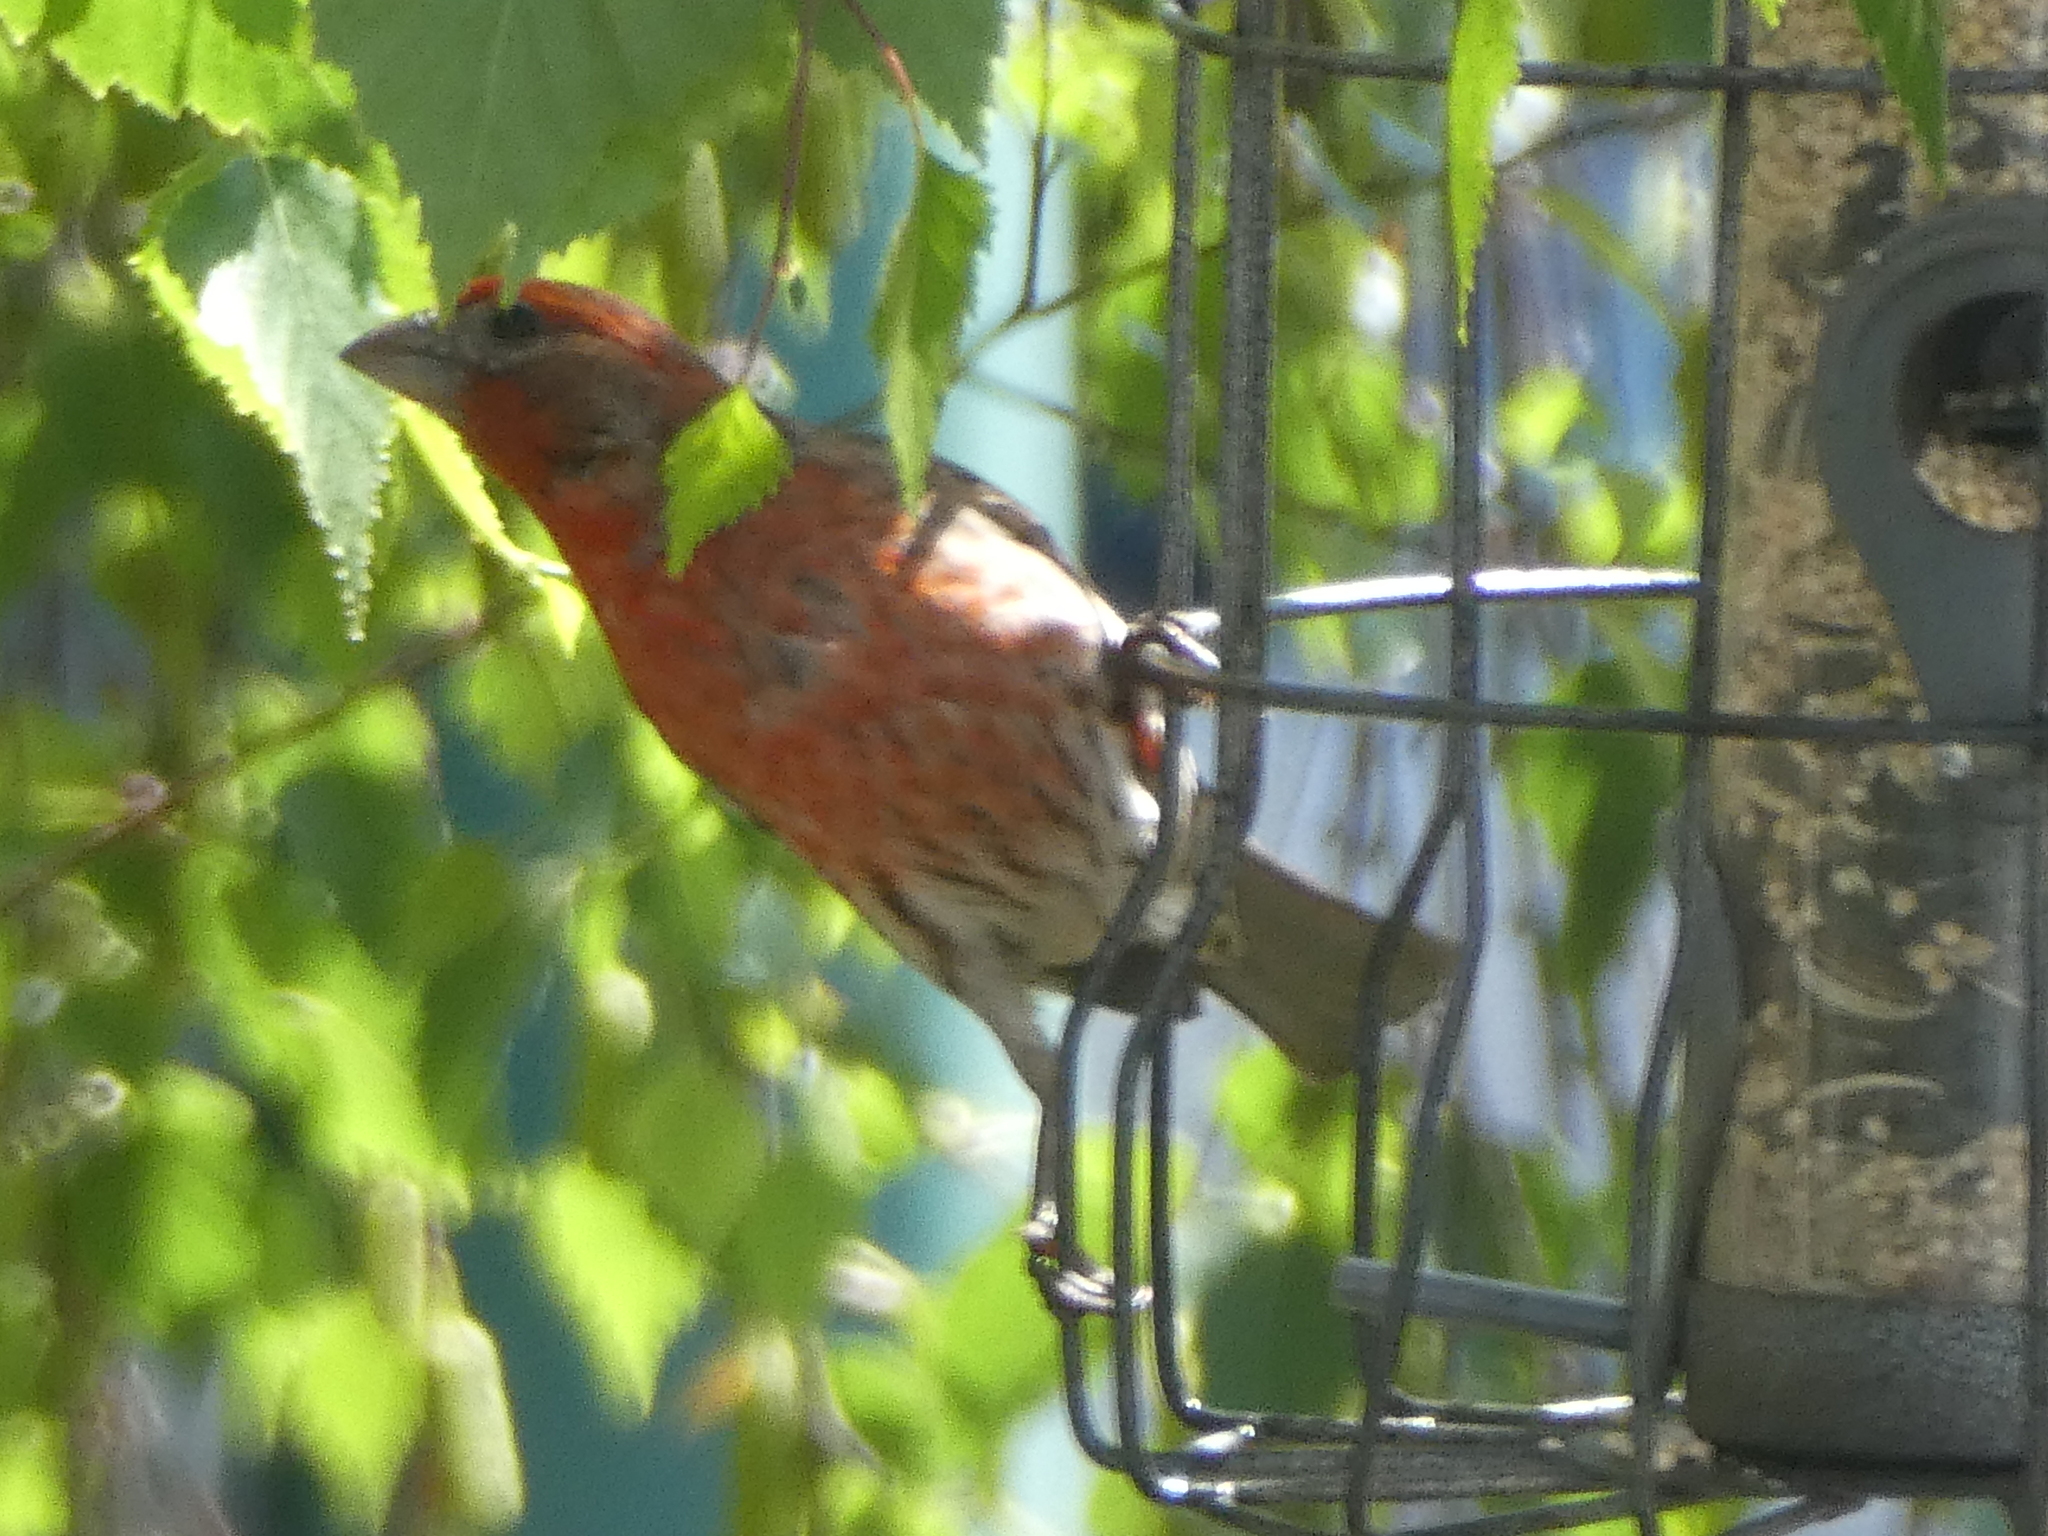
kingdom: Animalia
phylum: Chordata
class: Aves
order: Passeriformes
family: Fringillidae
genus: Haemorhous
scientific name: Haemorhous mexicanus
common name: House finch
